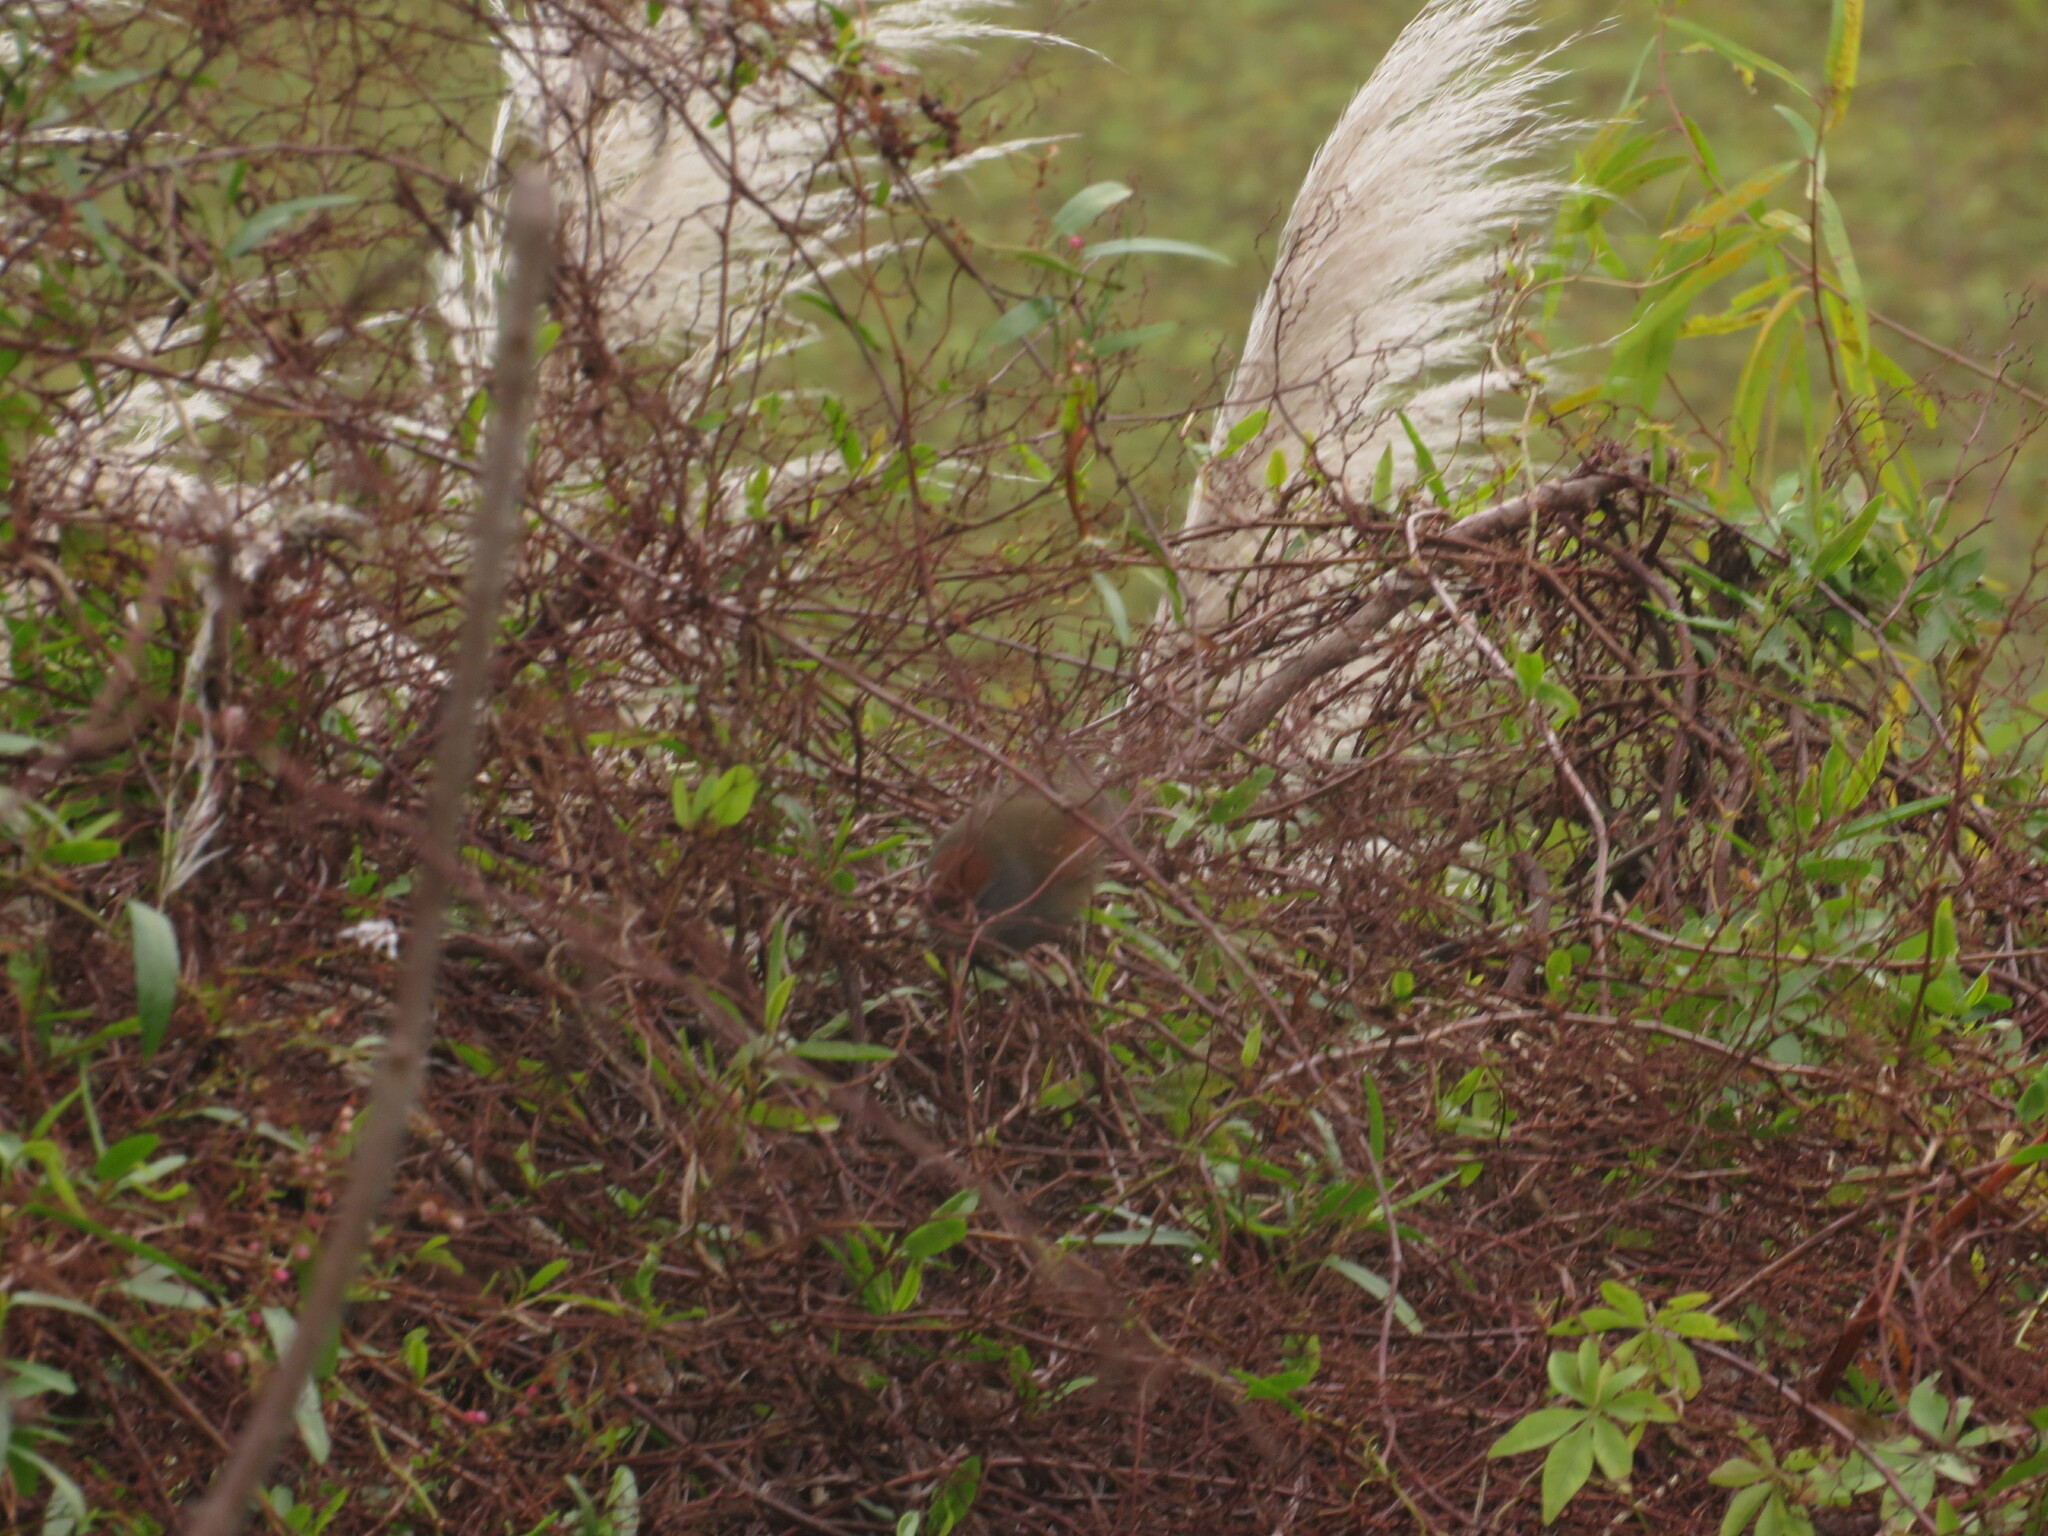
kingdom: Animalia
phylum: Chordata
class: Aves
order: Passeriformes
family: Furnariidae
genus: Synallaxis
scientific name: Synallaxis frontalis
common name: Sooty-fronted spinetail
